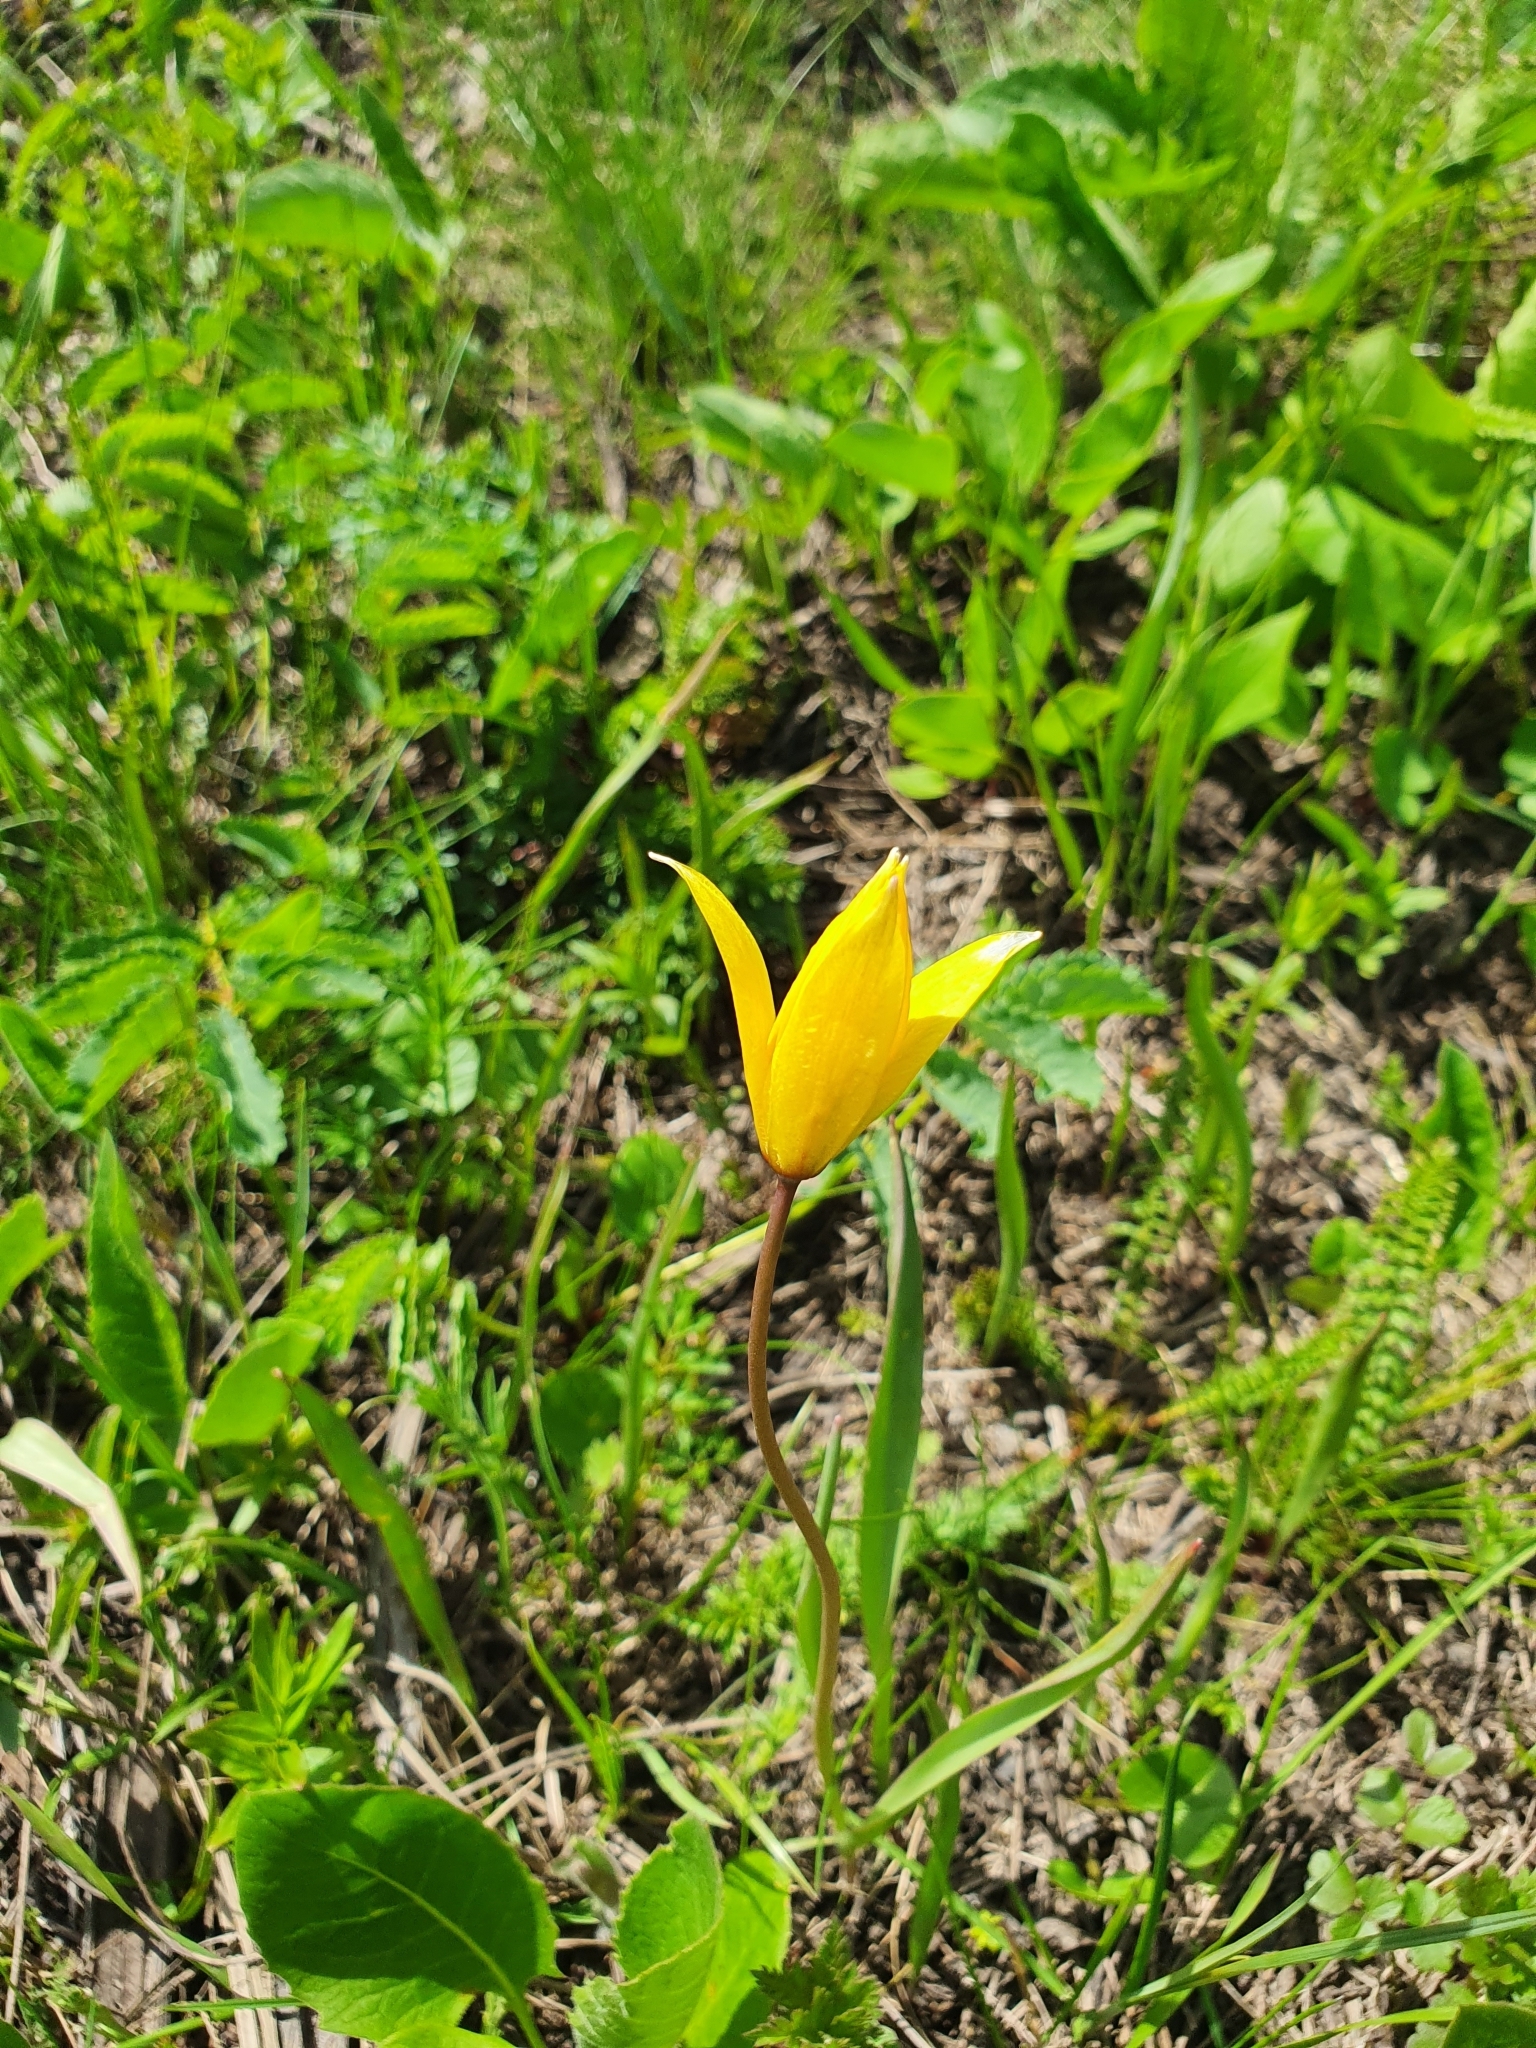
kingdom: Plantae
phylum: Tracheophyta
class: Liliopsida
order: Liliales
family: Liliaceae
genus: Tulipa
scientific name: Tulipa sylvestris
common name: Wild tulip
